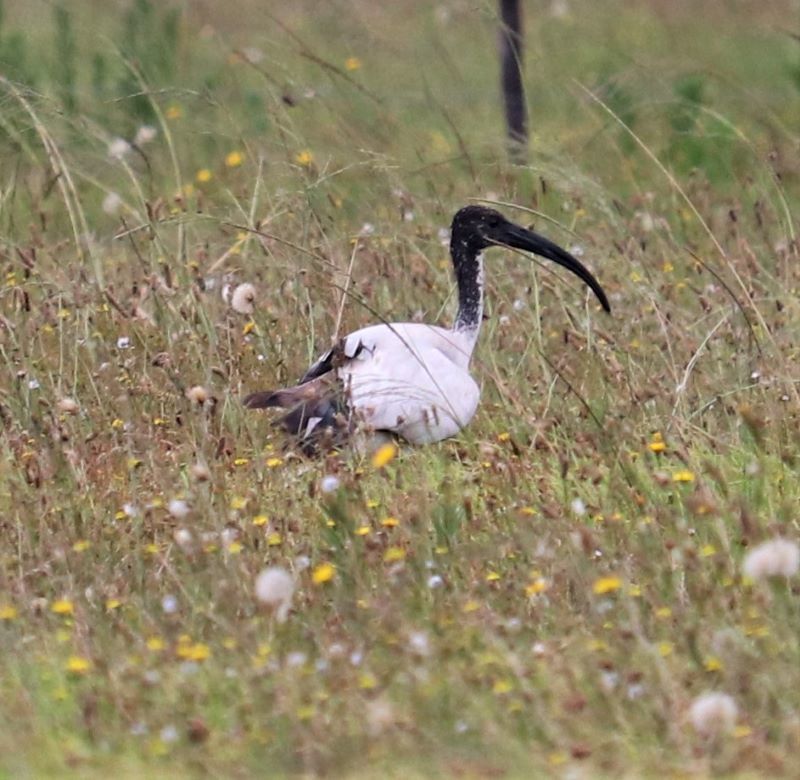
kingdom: Animalia
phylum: Chordata
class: Aves
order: Pelecaniformes
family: Threskiornithidae
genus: Threskiornis
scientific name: Threskiornis aethiopicus
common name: Sacred ibis
